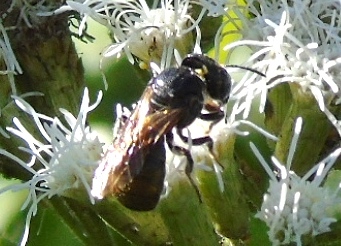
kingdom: Animalia
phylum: Arthropoda
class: Insecta
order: Hymenoptera
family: Apidae
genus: Ceratina
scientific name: Ceratina
